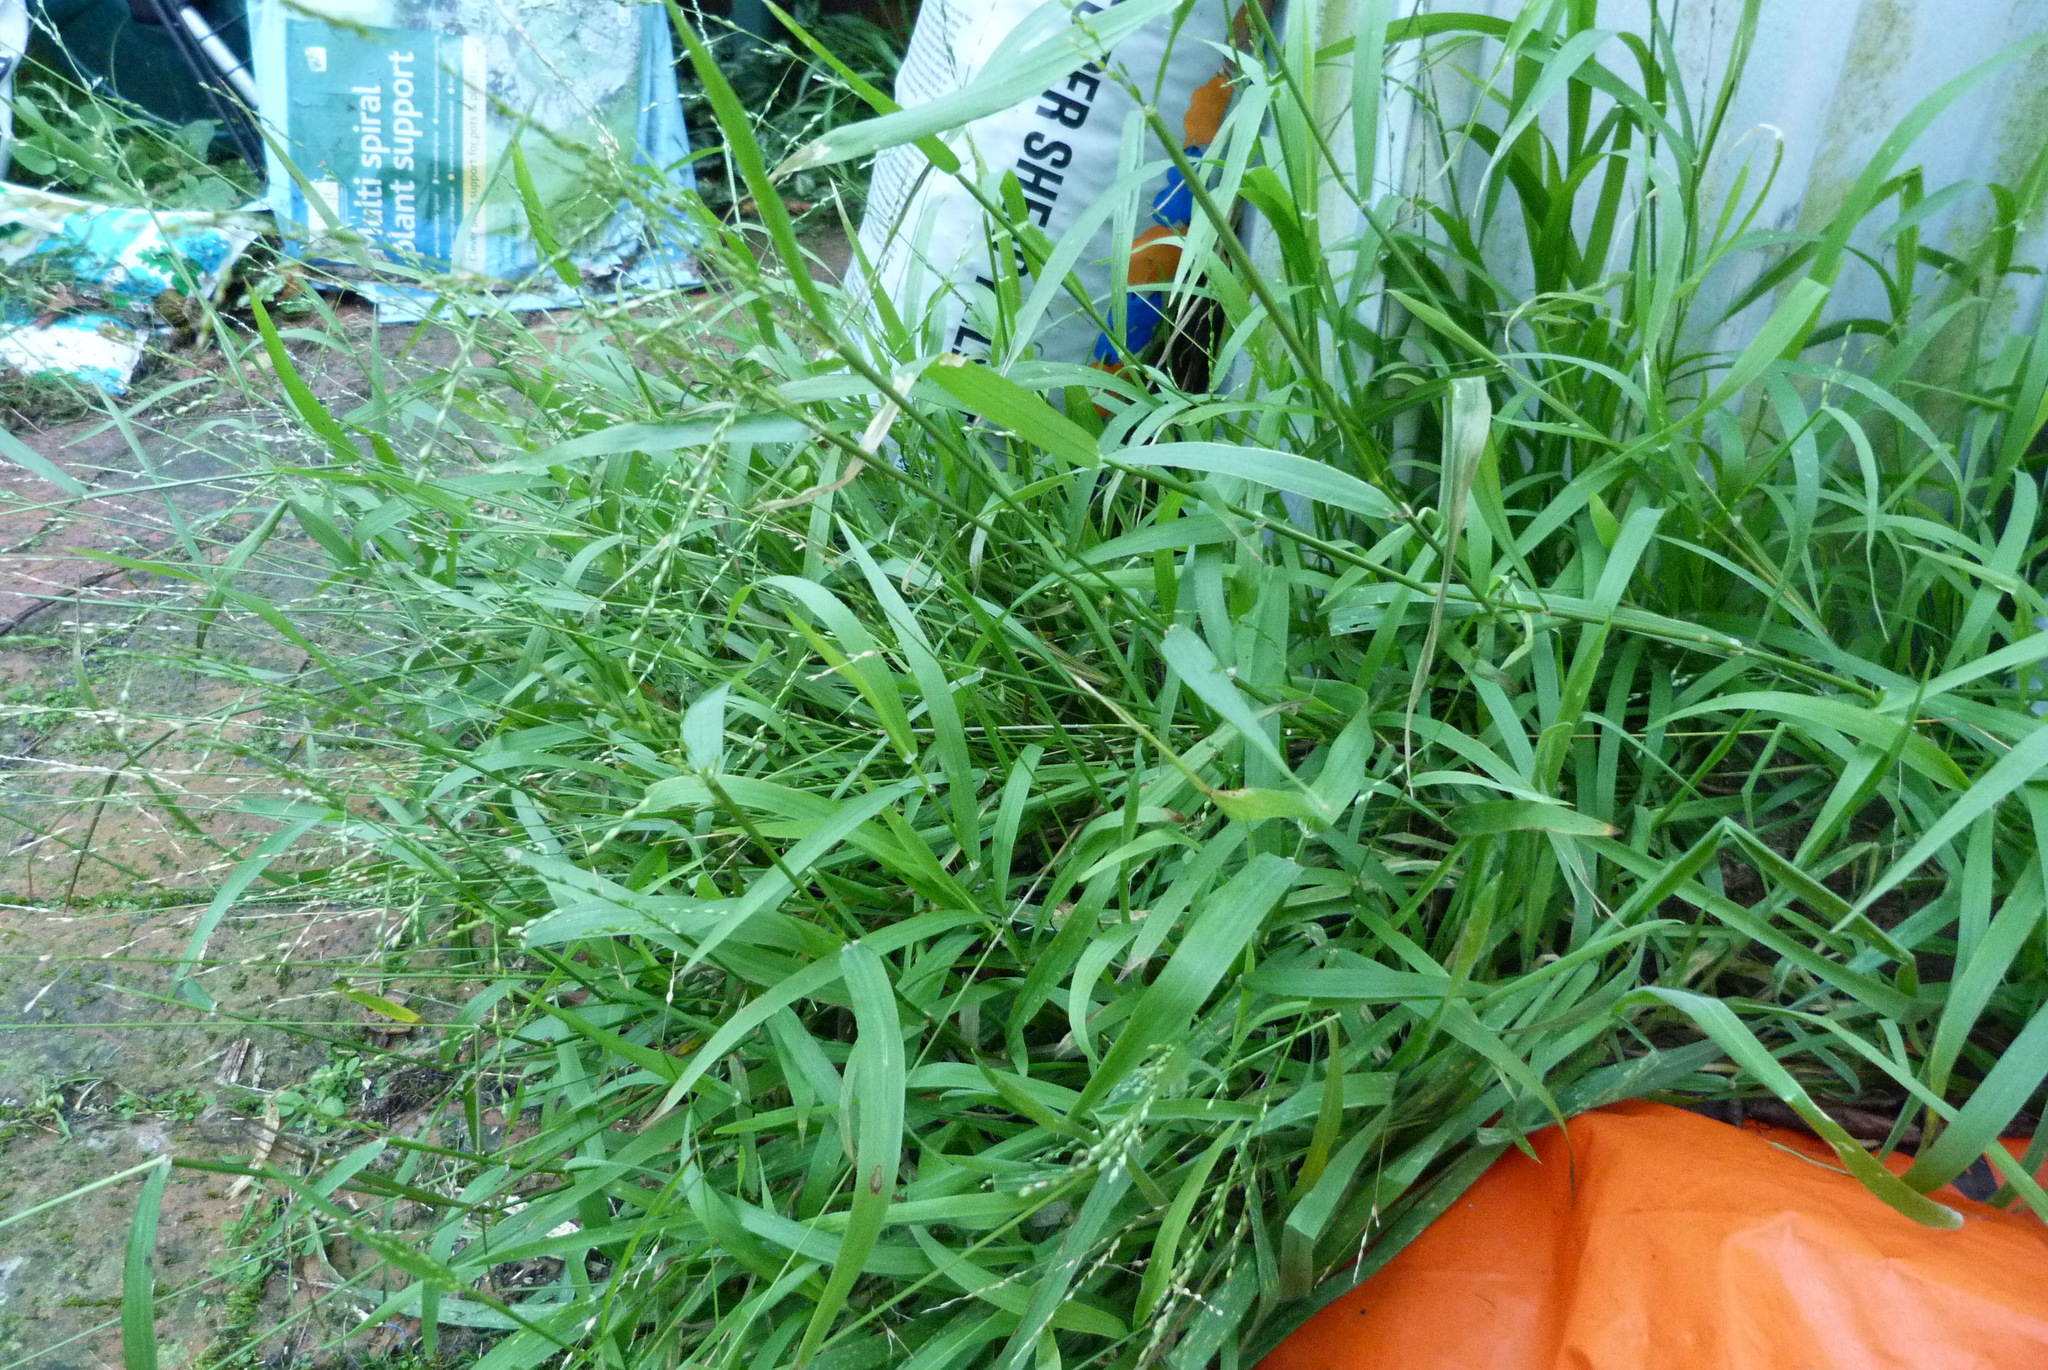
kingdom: Plantae
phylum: Tracheophyta
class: Liliopsida
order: Poales
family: Poaceae
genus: Ehrharta
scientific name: Ehrharta erecta
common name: Panic veldtgrass
